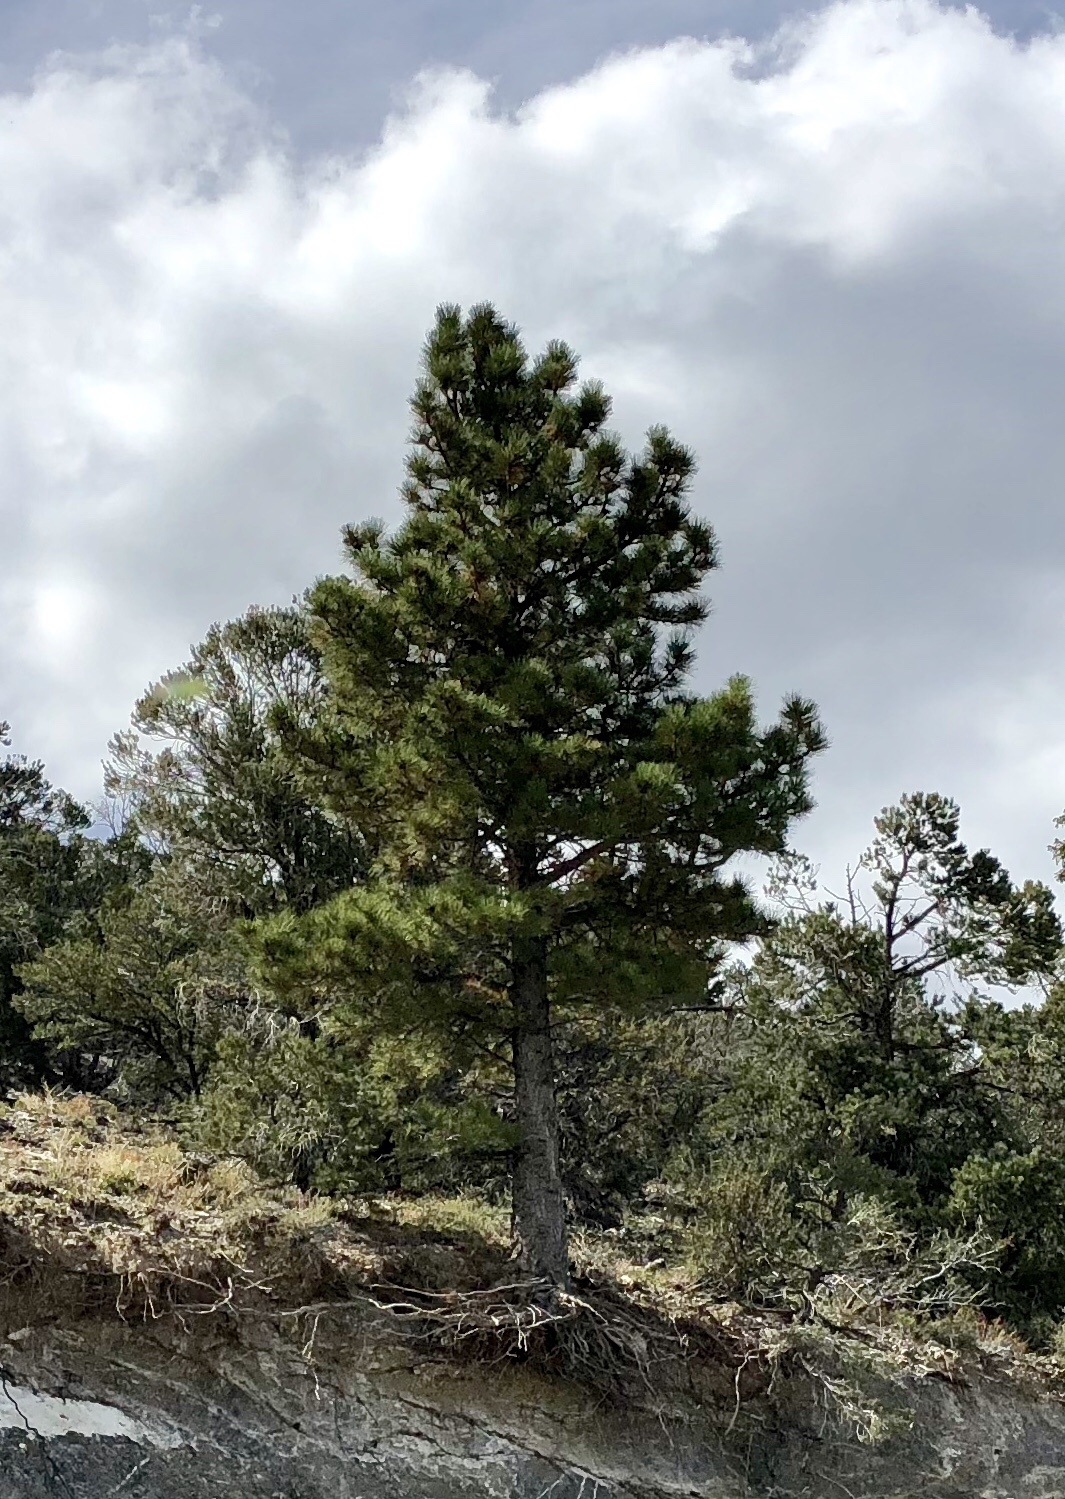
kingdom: Plantae
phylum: Tracheophyta
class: Pinopsida
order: Pinales
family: Pinaceae
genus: Pinus
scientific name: Pinus ponderosa
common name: Western yellow-pine
